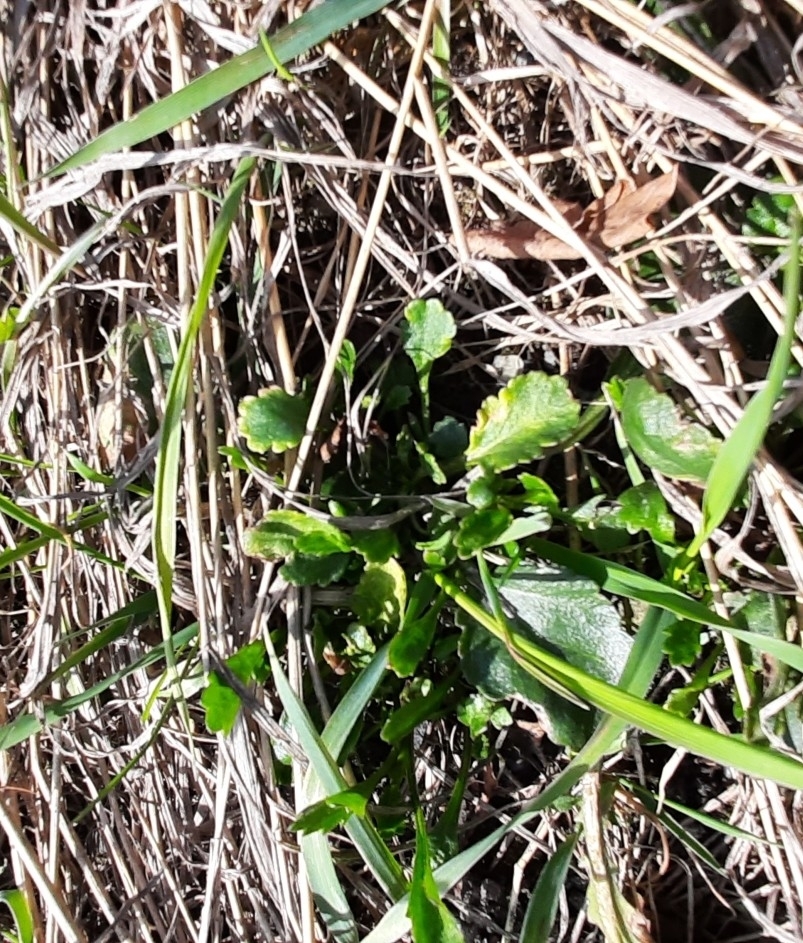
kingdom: Plantae
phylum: Tracheophyta
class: Magnoliopsida
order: Asterales
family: Asteraceae
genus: Leucanthemum
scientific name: Leucanthemum ircutianum
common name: Daisy
